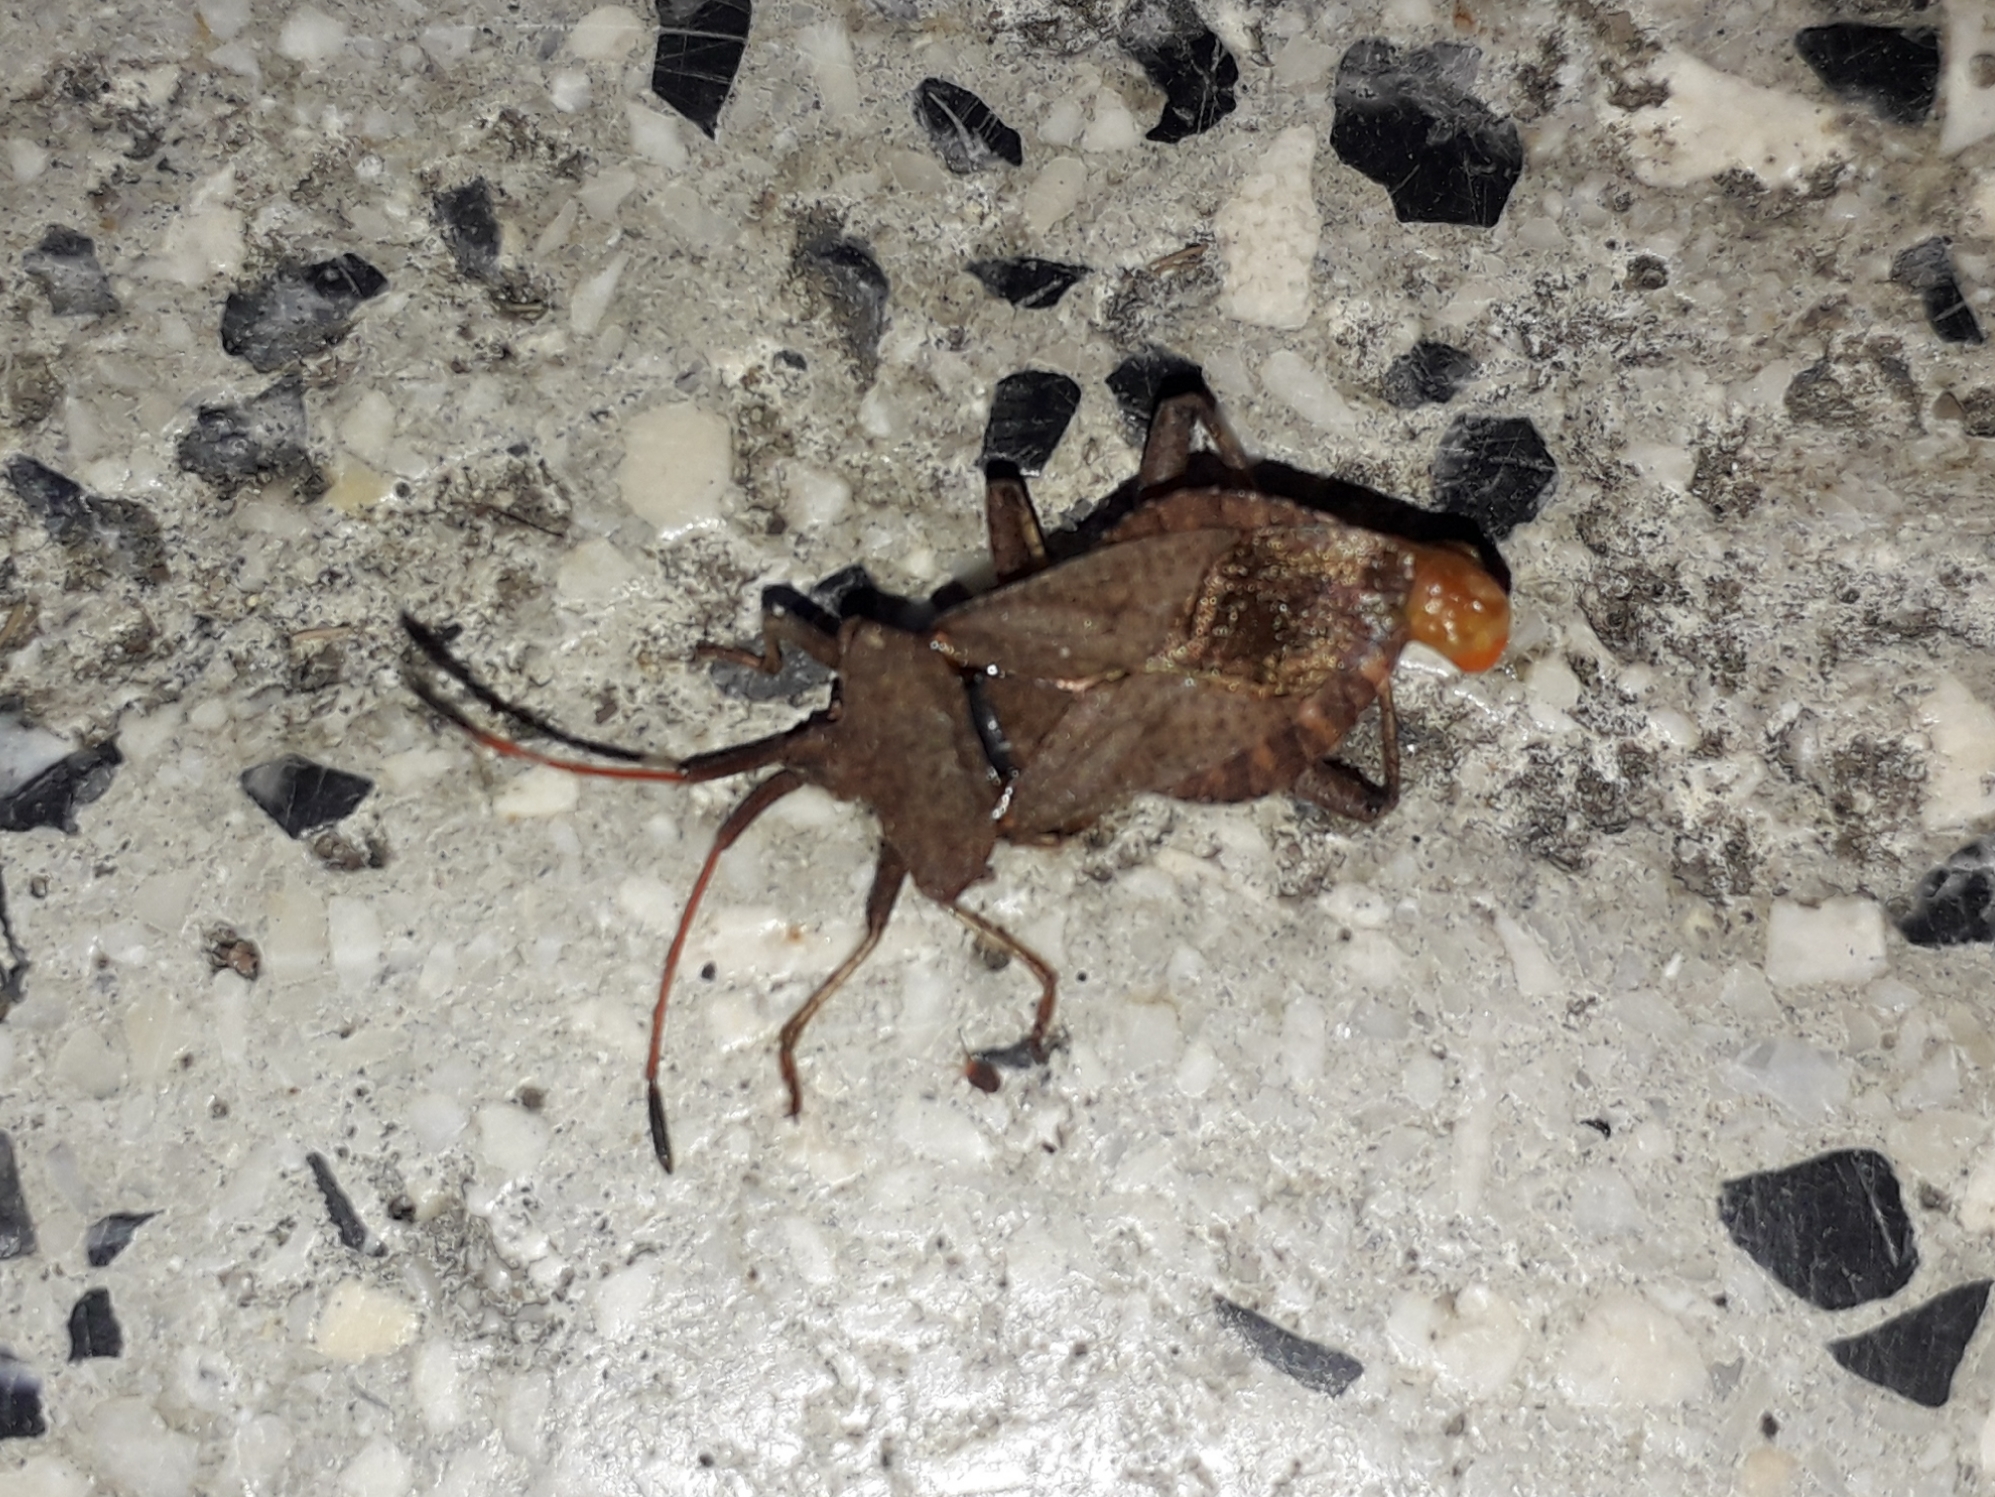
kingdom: Animalia
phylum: Arthropoda
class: Insecta
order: Hemiptera
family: Coreidae
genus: Coreus
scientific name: Coreus marginatus
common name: Dock bug
